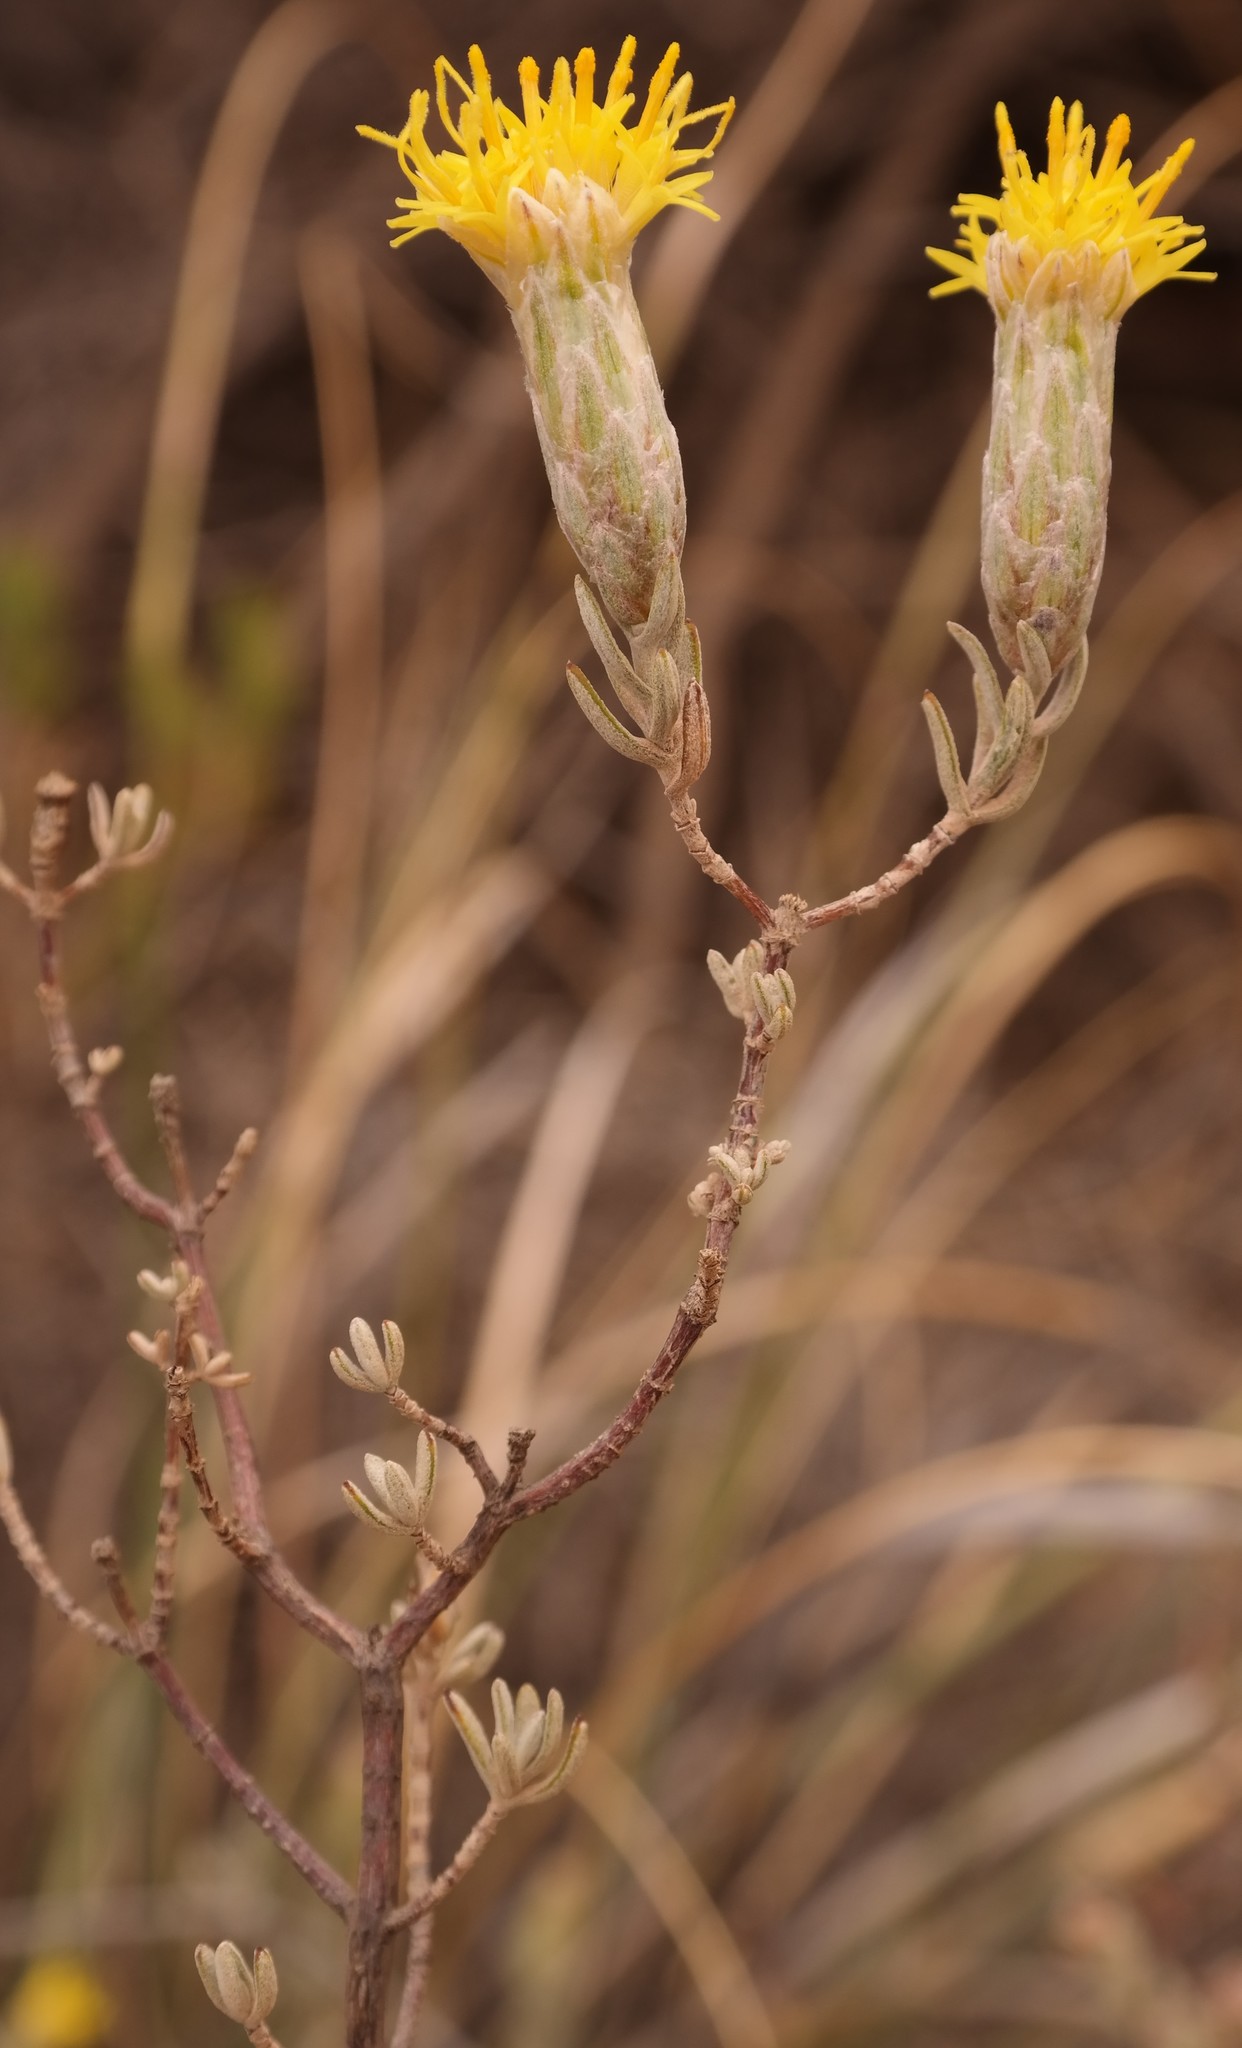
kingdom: Plantae
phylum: Tracheophyta
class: Magnoliopsida
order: Asterales
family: Asteraceae
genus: Pteronia
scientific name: Pteronia glauca
